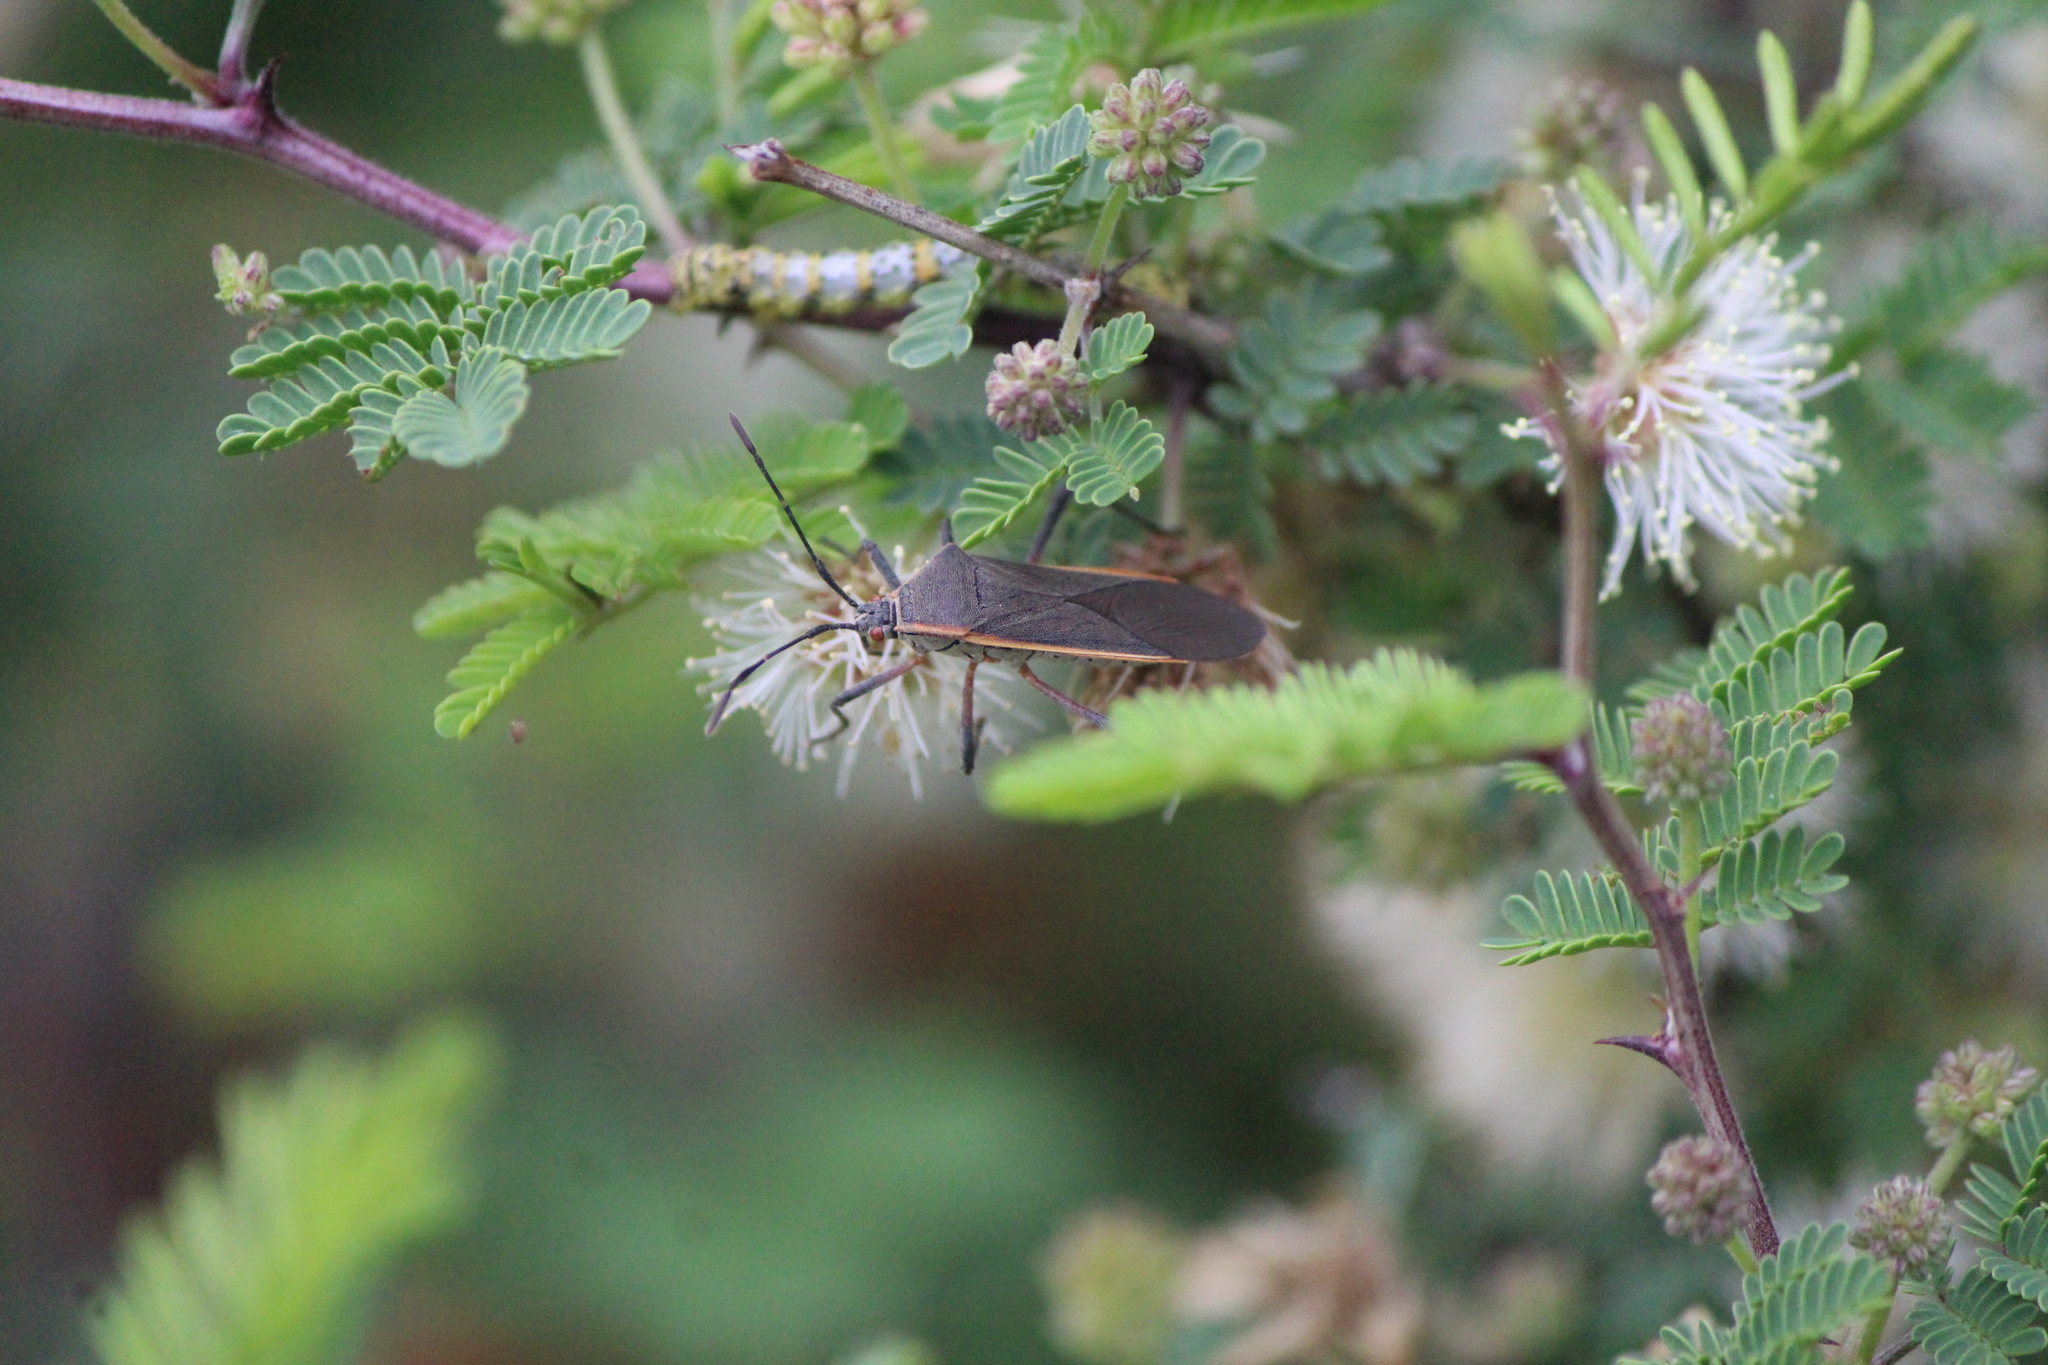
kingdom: Animalia
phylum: Arthropoda
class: Insecta
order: Hemiptera
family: Coreidae
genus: Staluptus
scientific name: Staluptus marginalis
